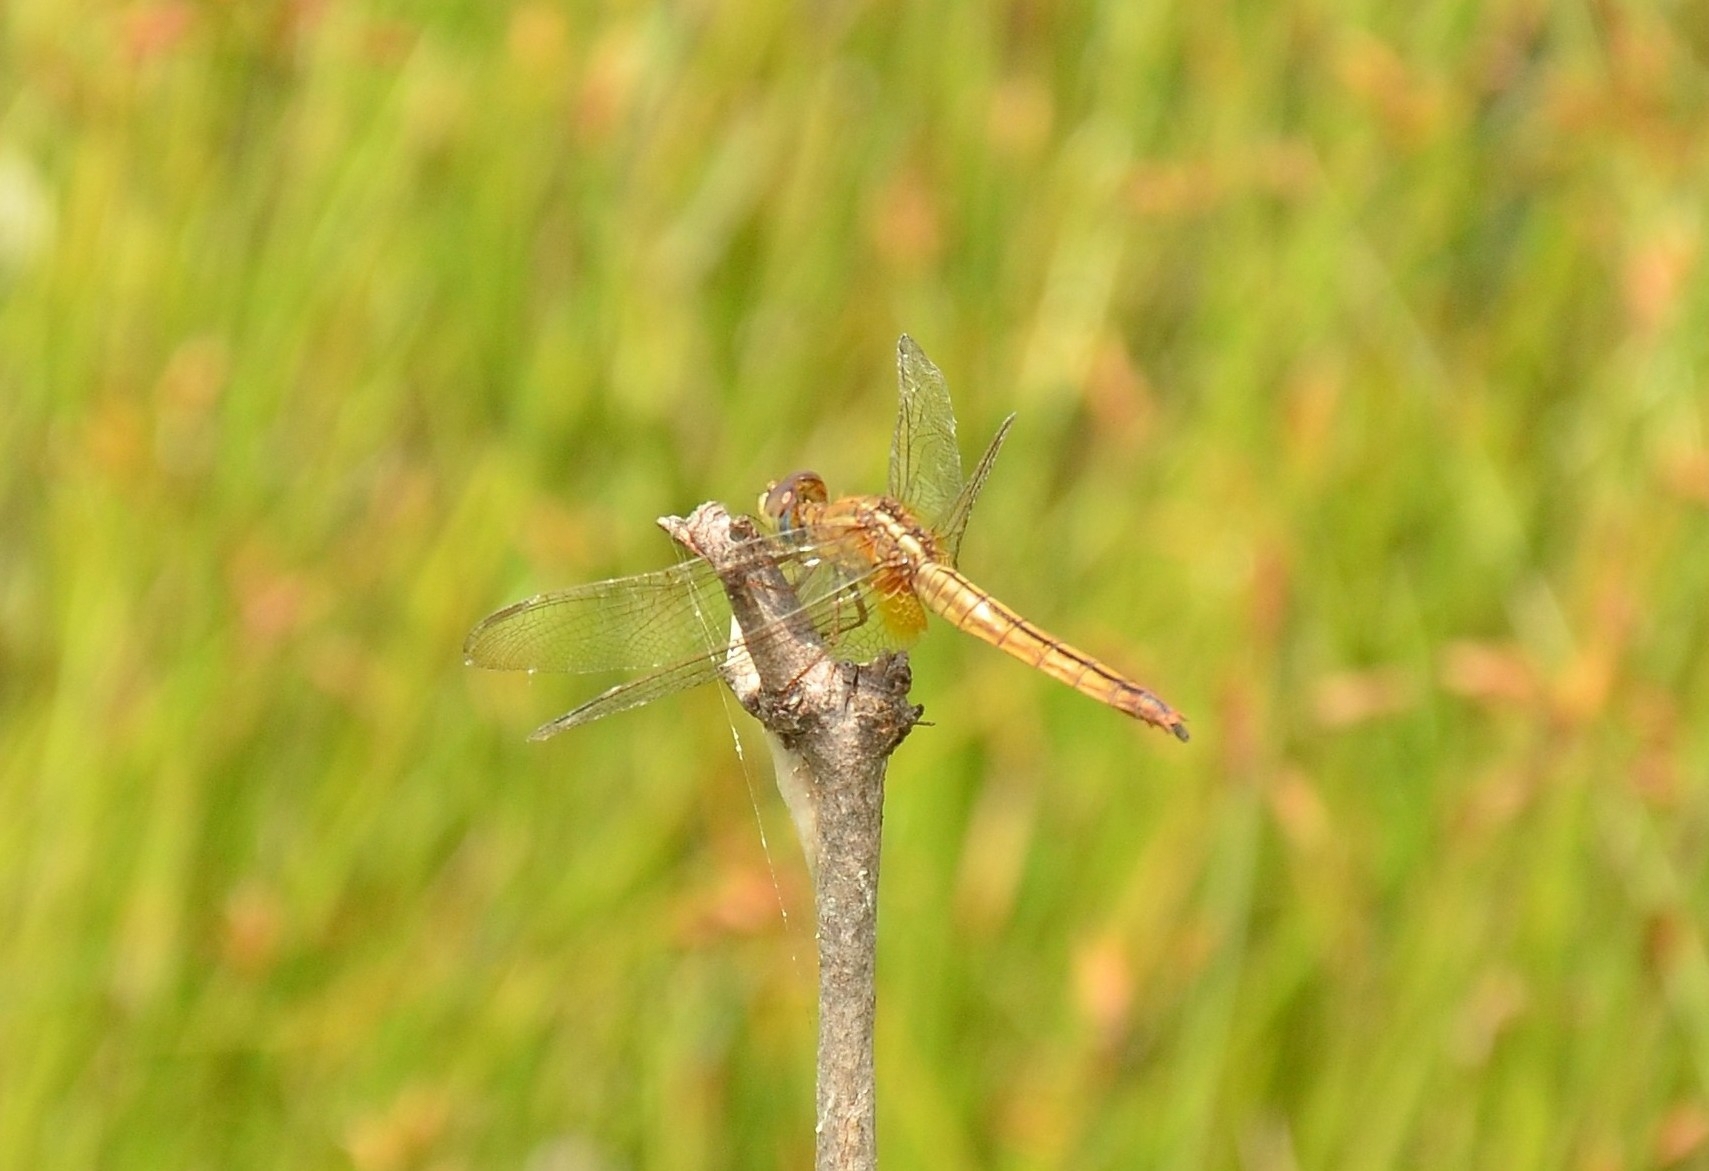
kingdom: Animalia
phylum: Arthropoda
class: Insecta
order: Odonata
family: Libellulidae
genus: Crocothemis
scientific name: Crocothemis servilia
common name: Scarlet skimmer
